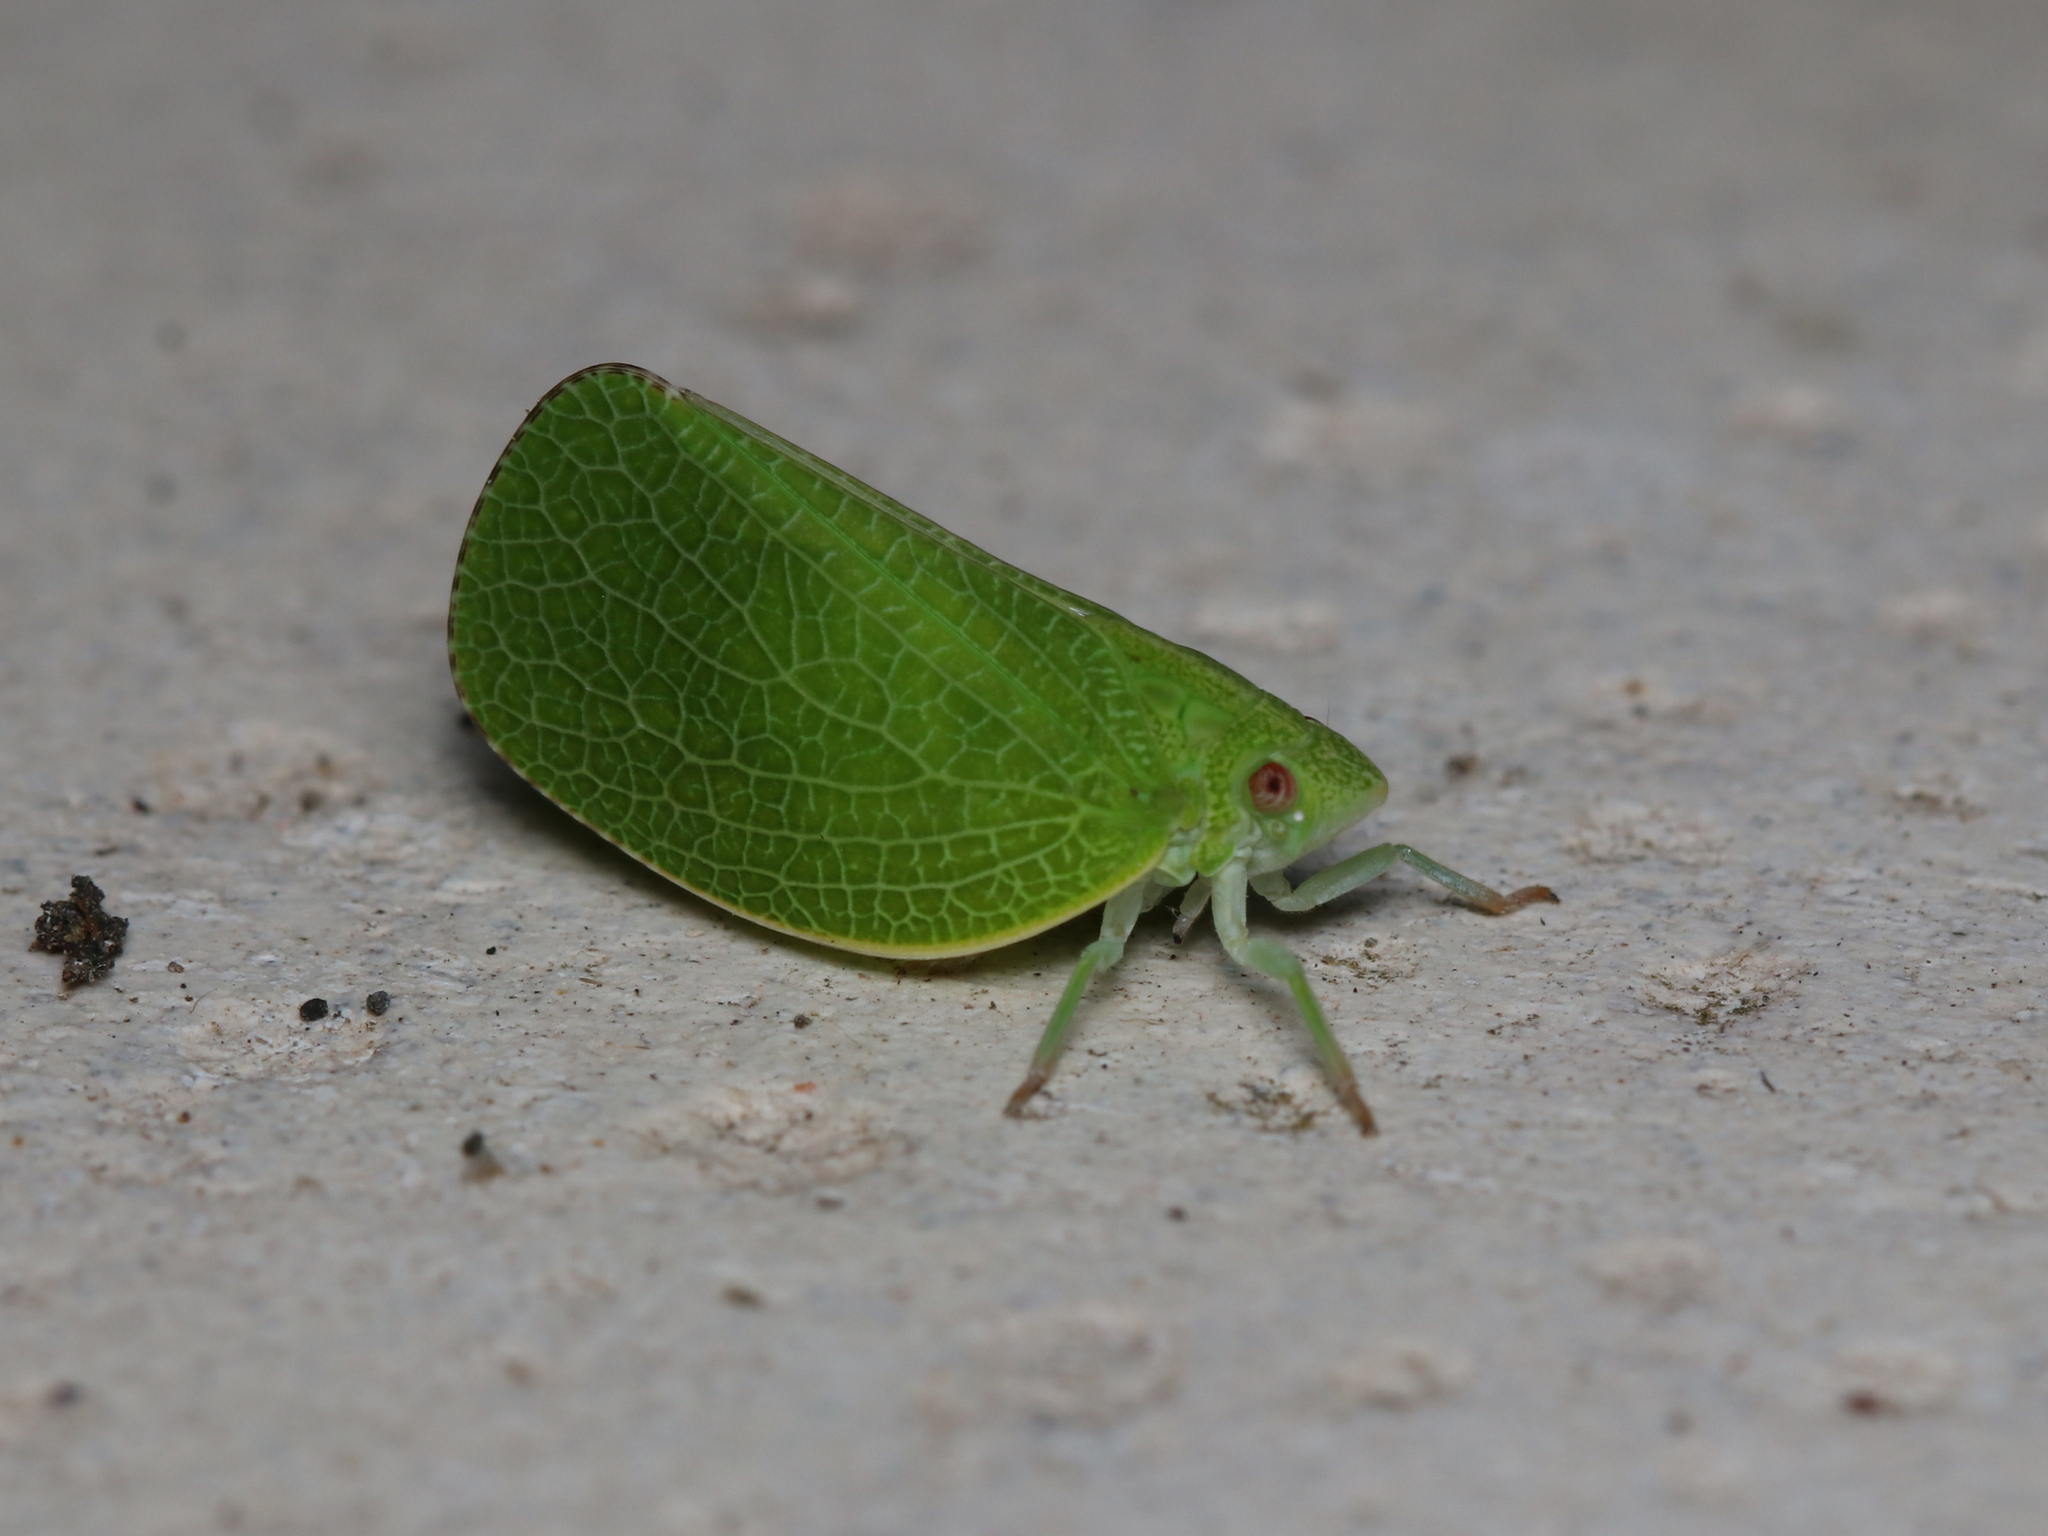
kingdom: Animalia
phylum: Arthropoda
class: Insecta
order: Hemiptera
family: Acanaloniidae
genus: Acanalonia
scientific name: Acanalonia conica
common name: Green cone-headed planthopper
